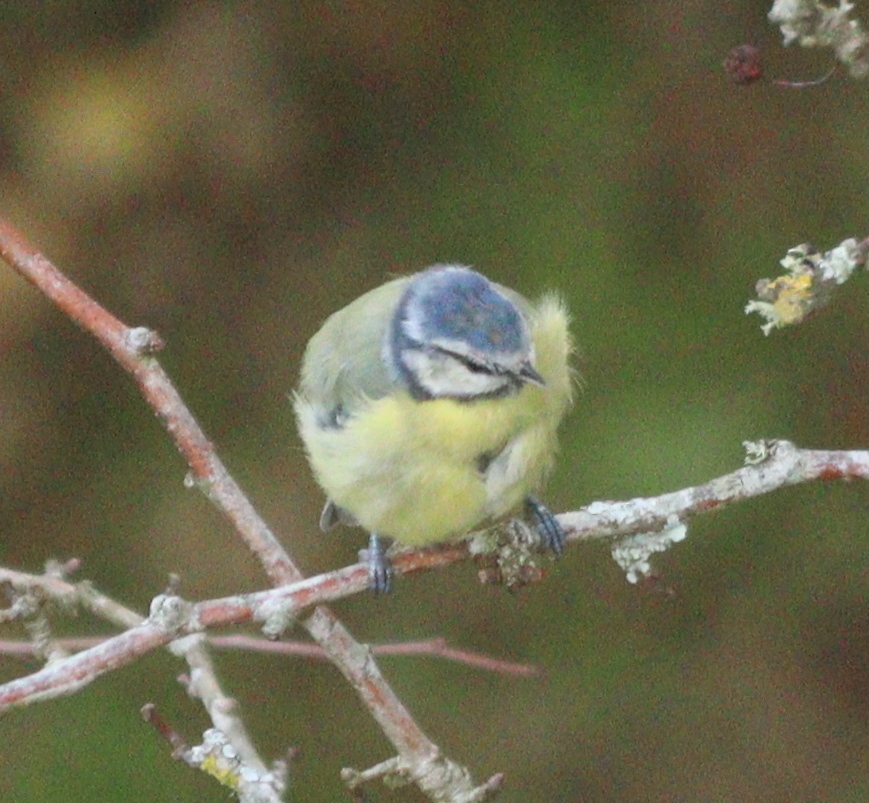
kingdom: Animalia
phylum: Chordata
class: Aves
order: Passeriformes
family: Paridae
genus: Cyanistes
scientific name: Cyanistes caeruleus
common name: Eurasian blue tit
